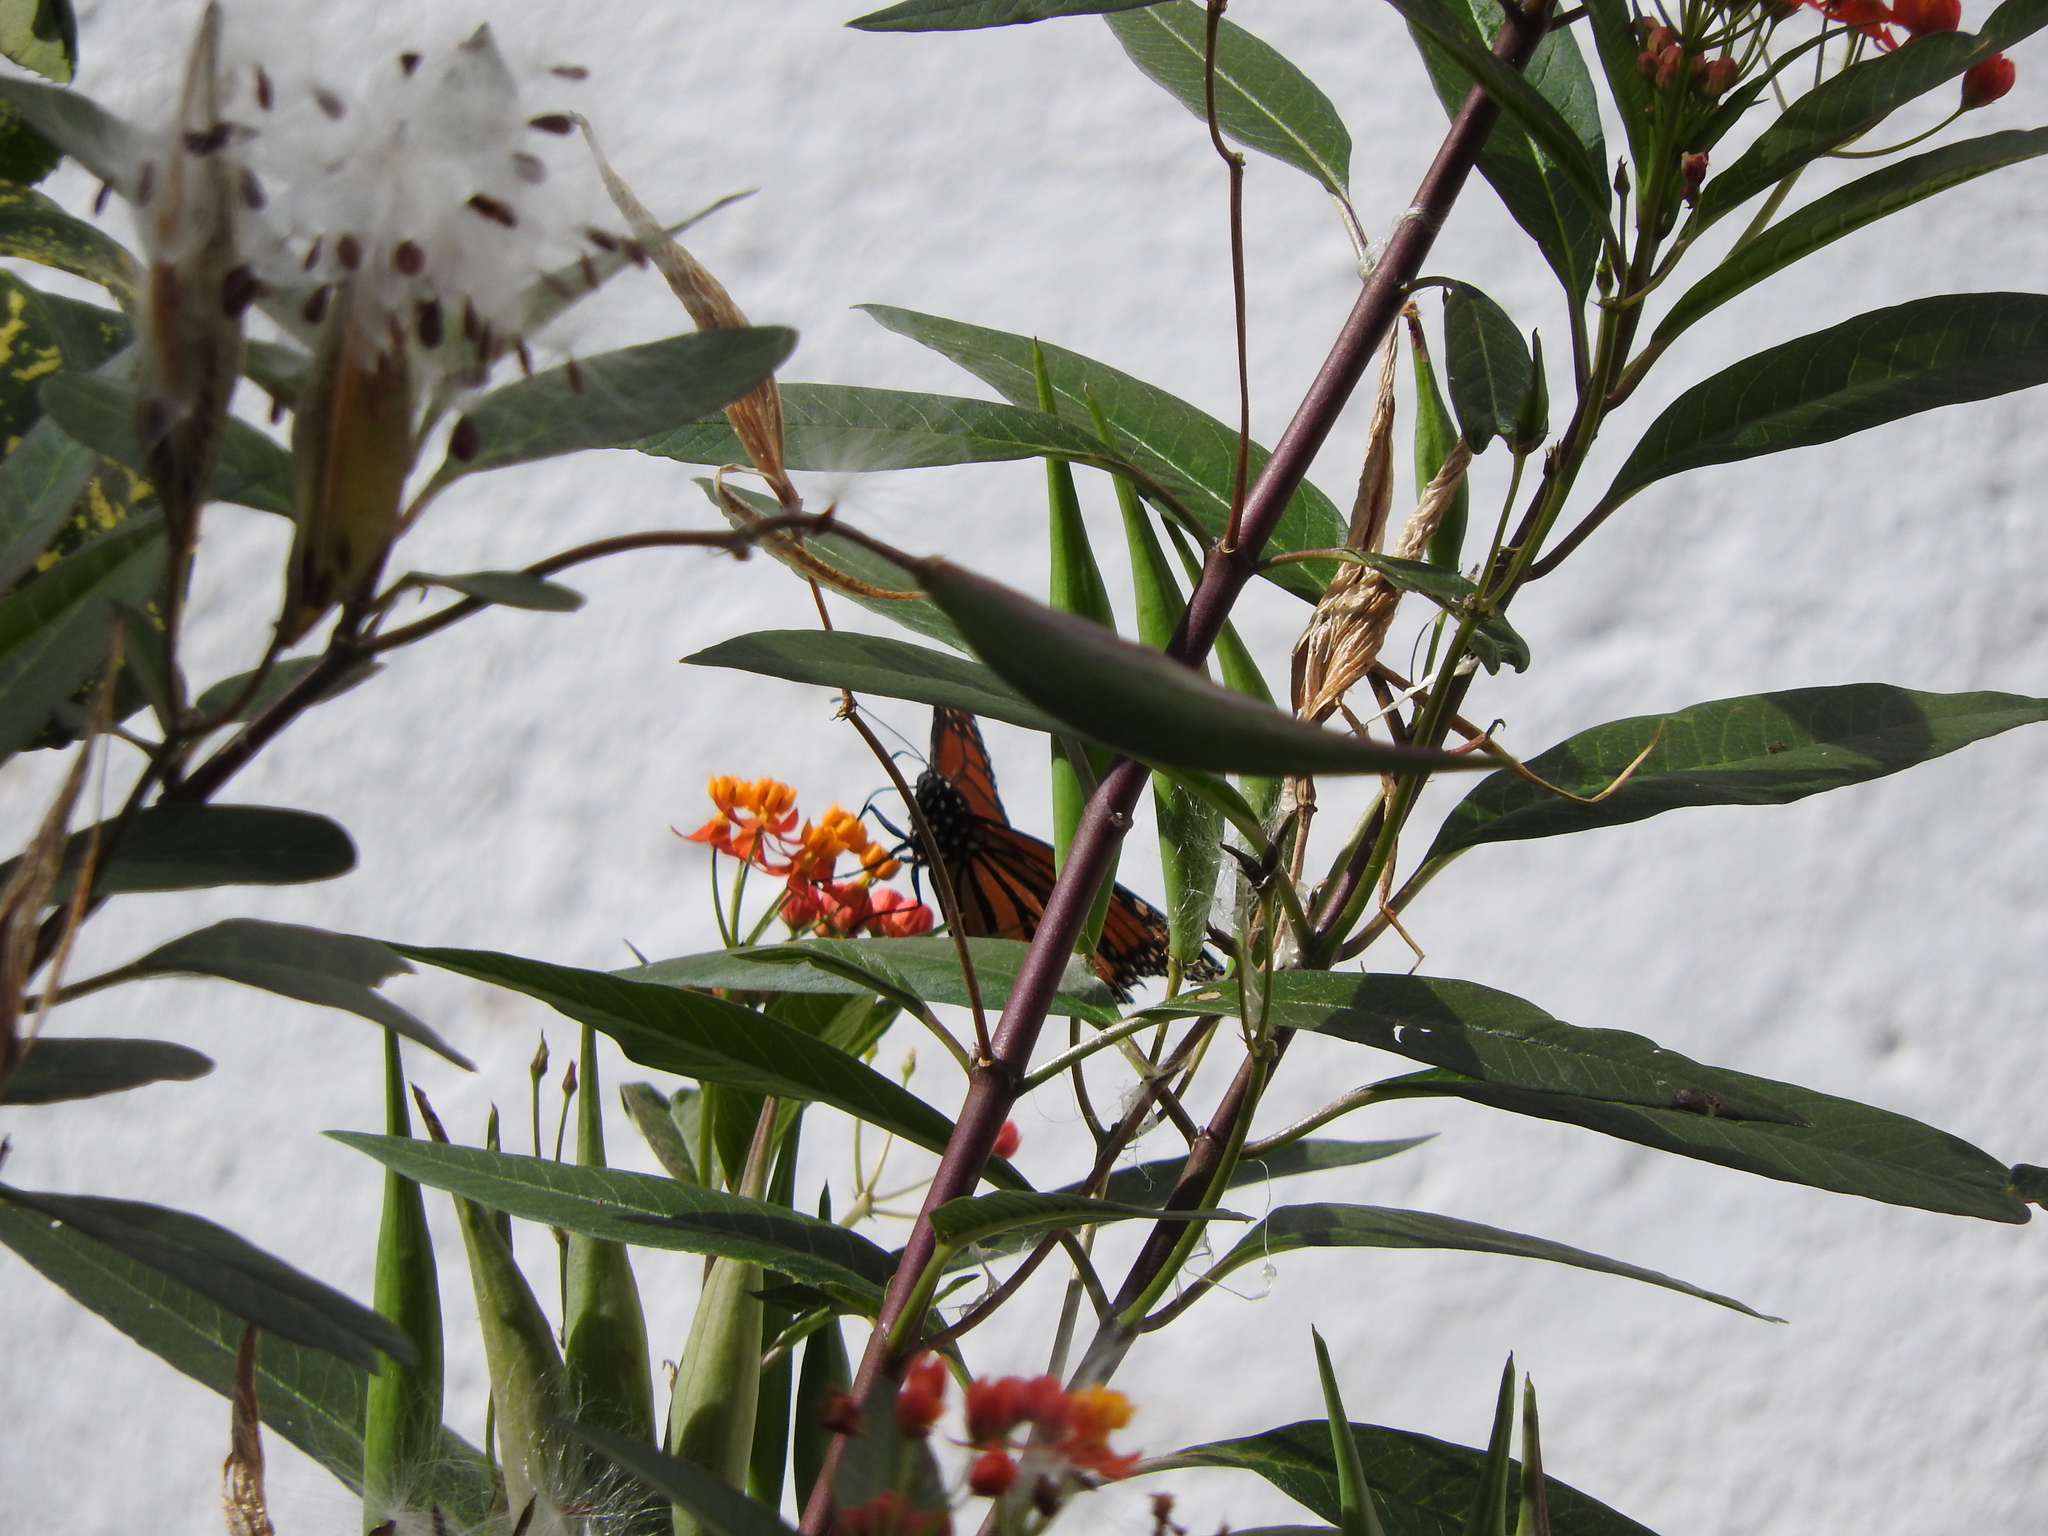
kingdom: Animalia
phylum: Arthropoda
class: Insecta
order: Lepidoptera
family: Nymphalidae
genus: Danaus
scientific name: Danaus plexippus
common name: Monarch
